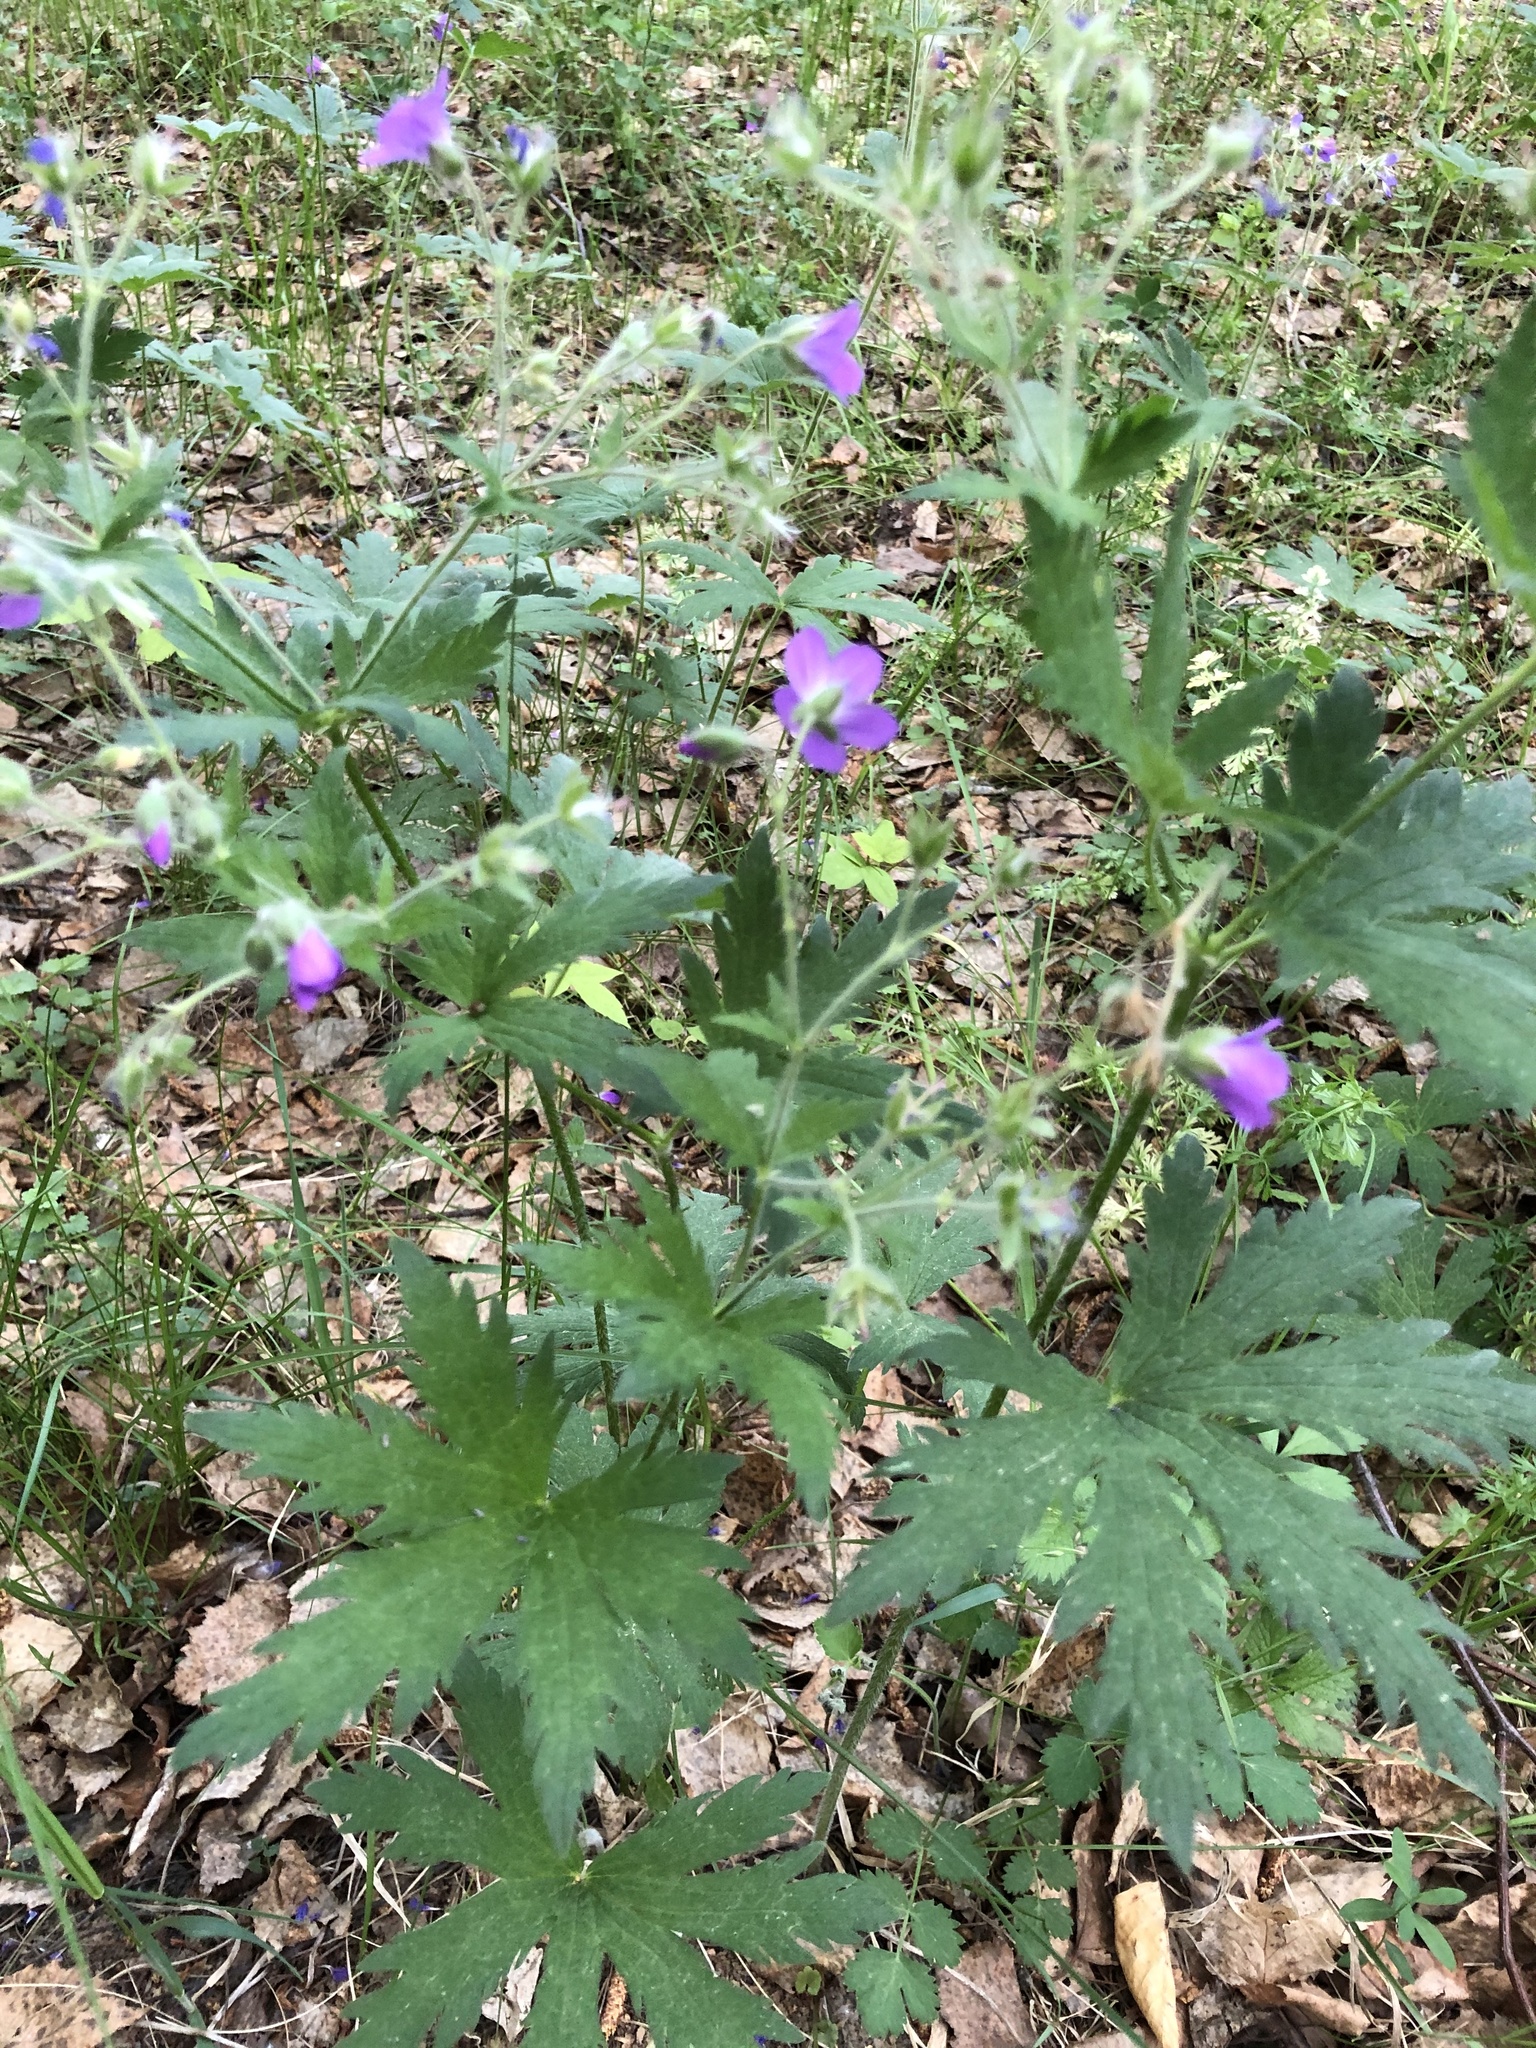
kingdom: Plantae
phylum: Tracheophyta
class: Magnoliopsida
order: Geraniales
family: Geraniaceae
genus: Geranium
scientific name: Geranium sylvaticum
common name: Wood crane's-bill
